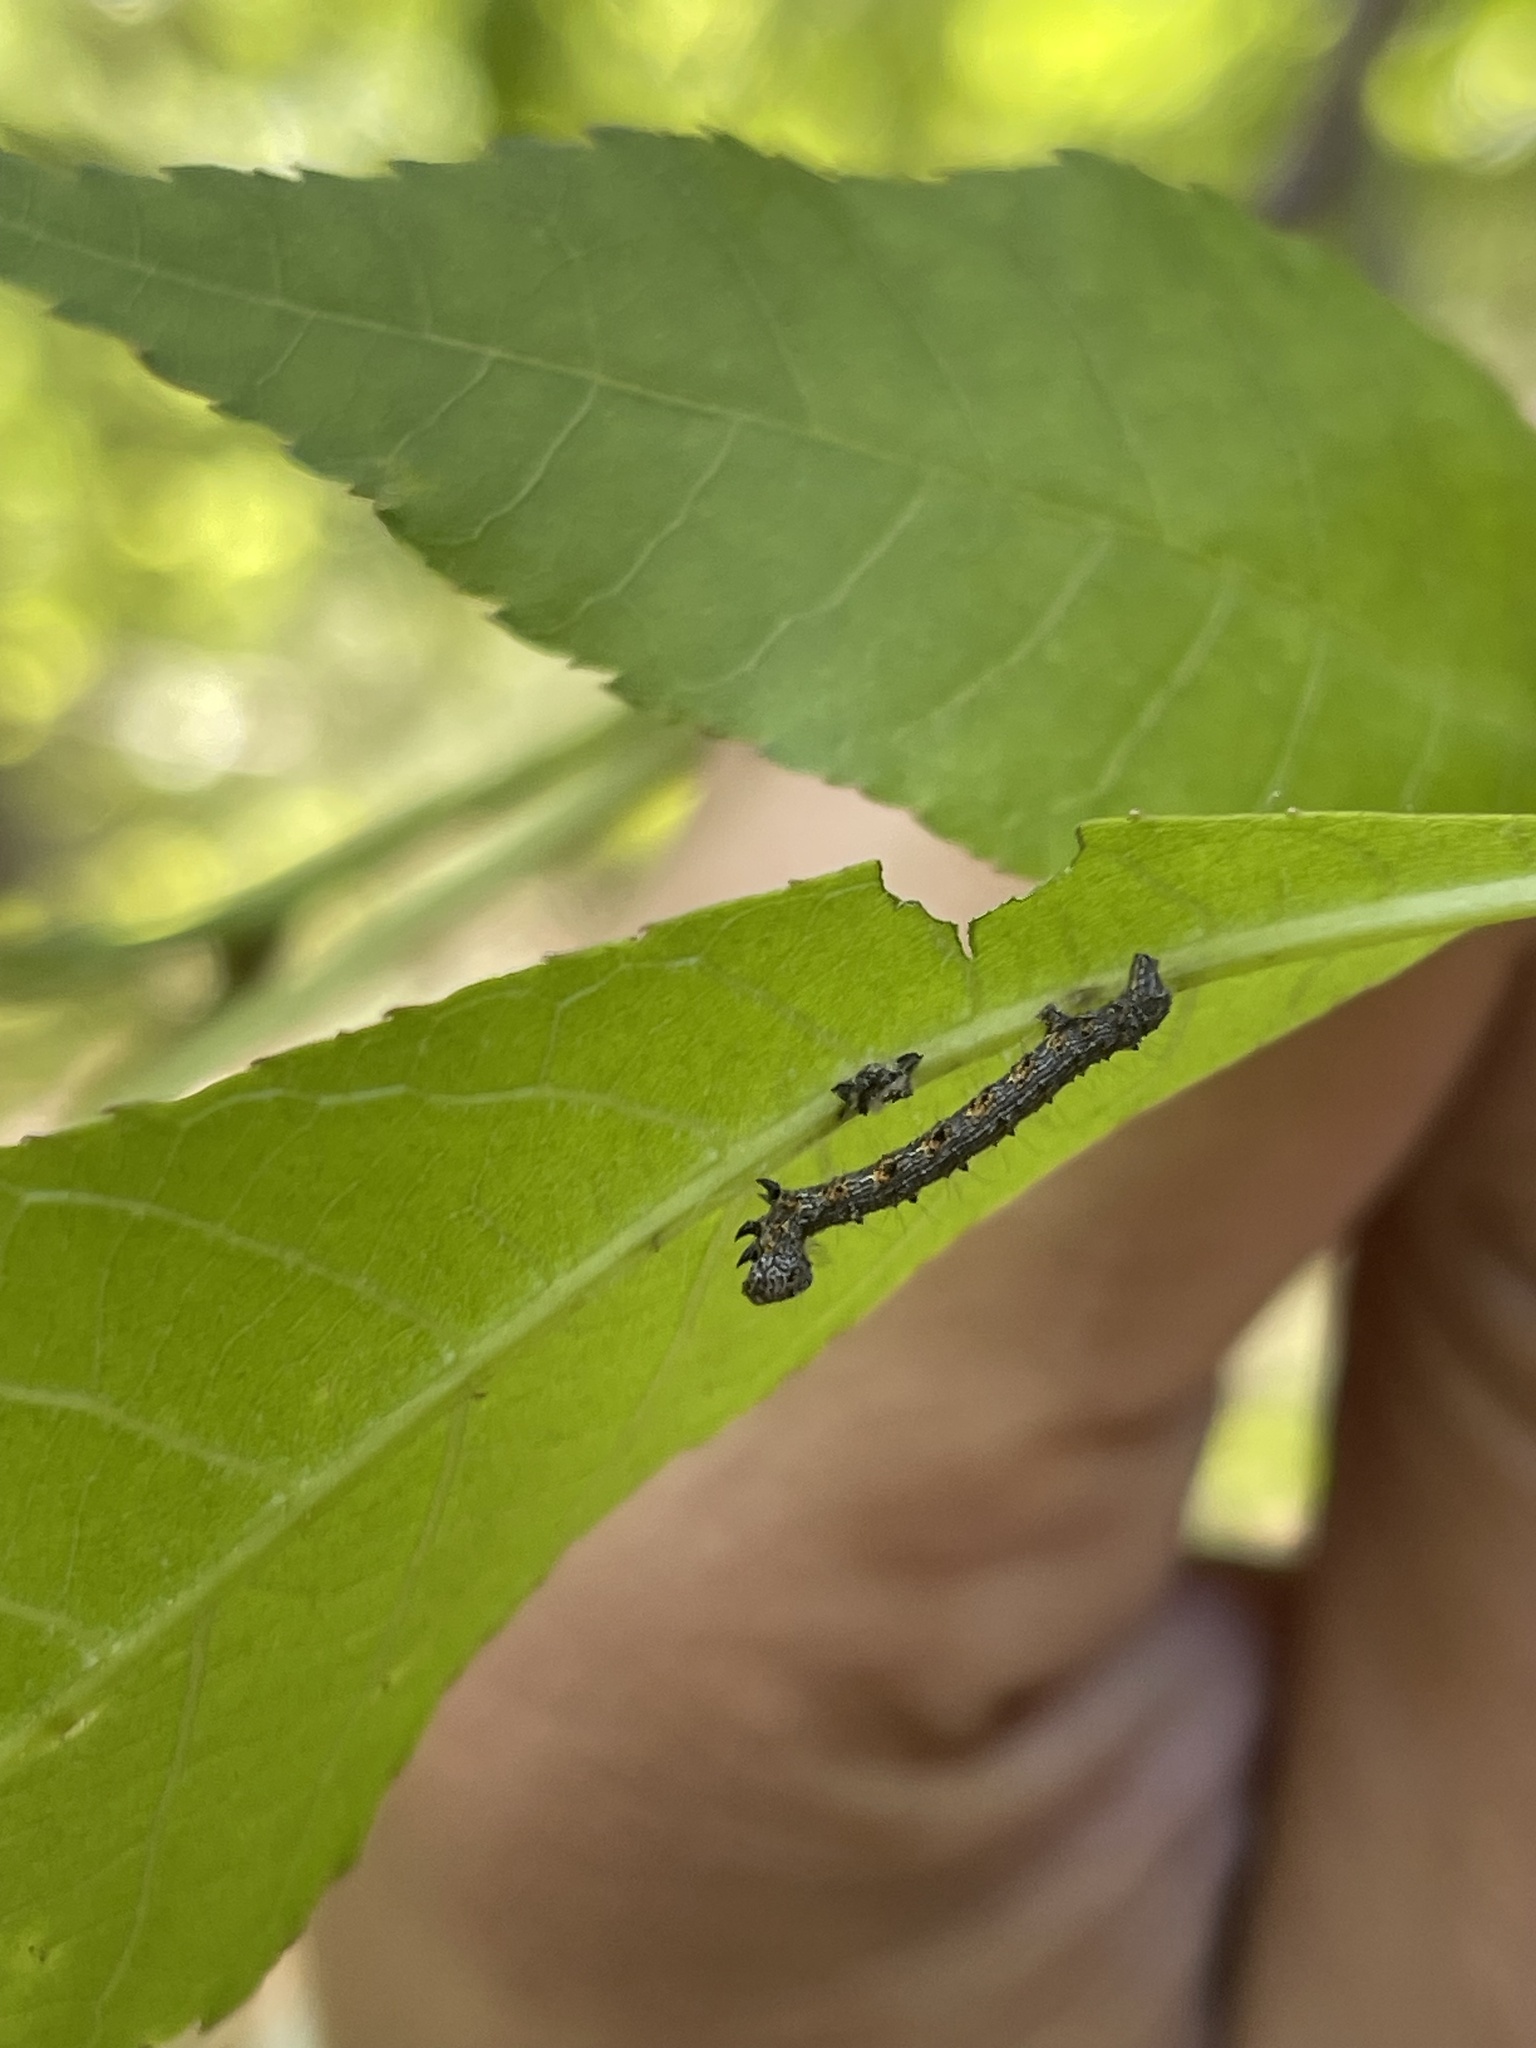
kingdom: Animalia
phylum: Arthropoda
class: Insecta
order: Lepidoptera
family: Geometridae
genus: Phigalia
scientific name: Phigalia titea
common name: Spiny looper
